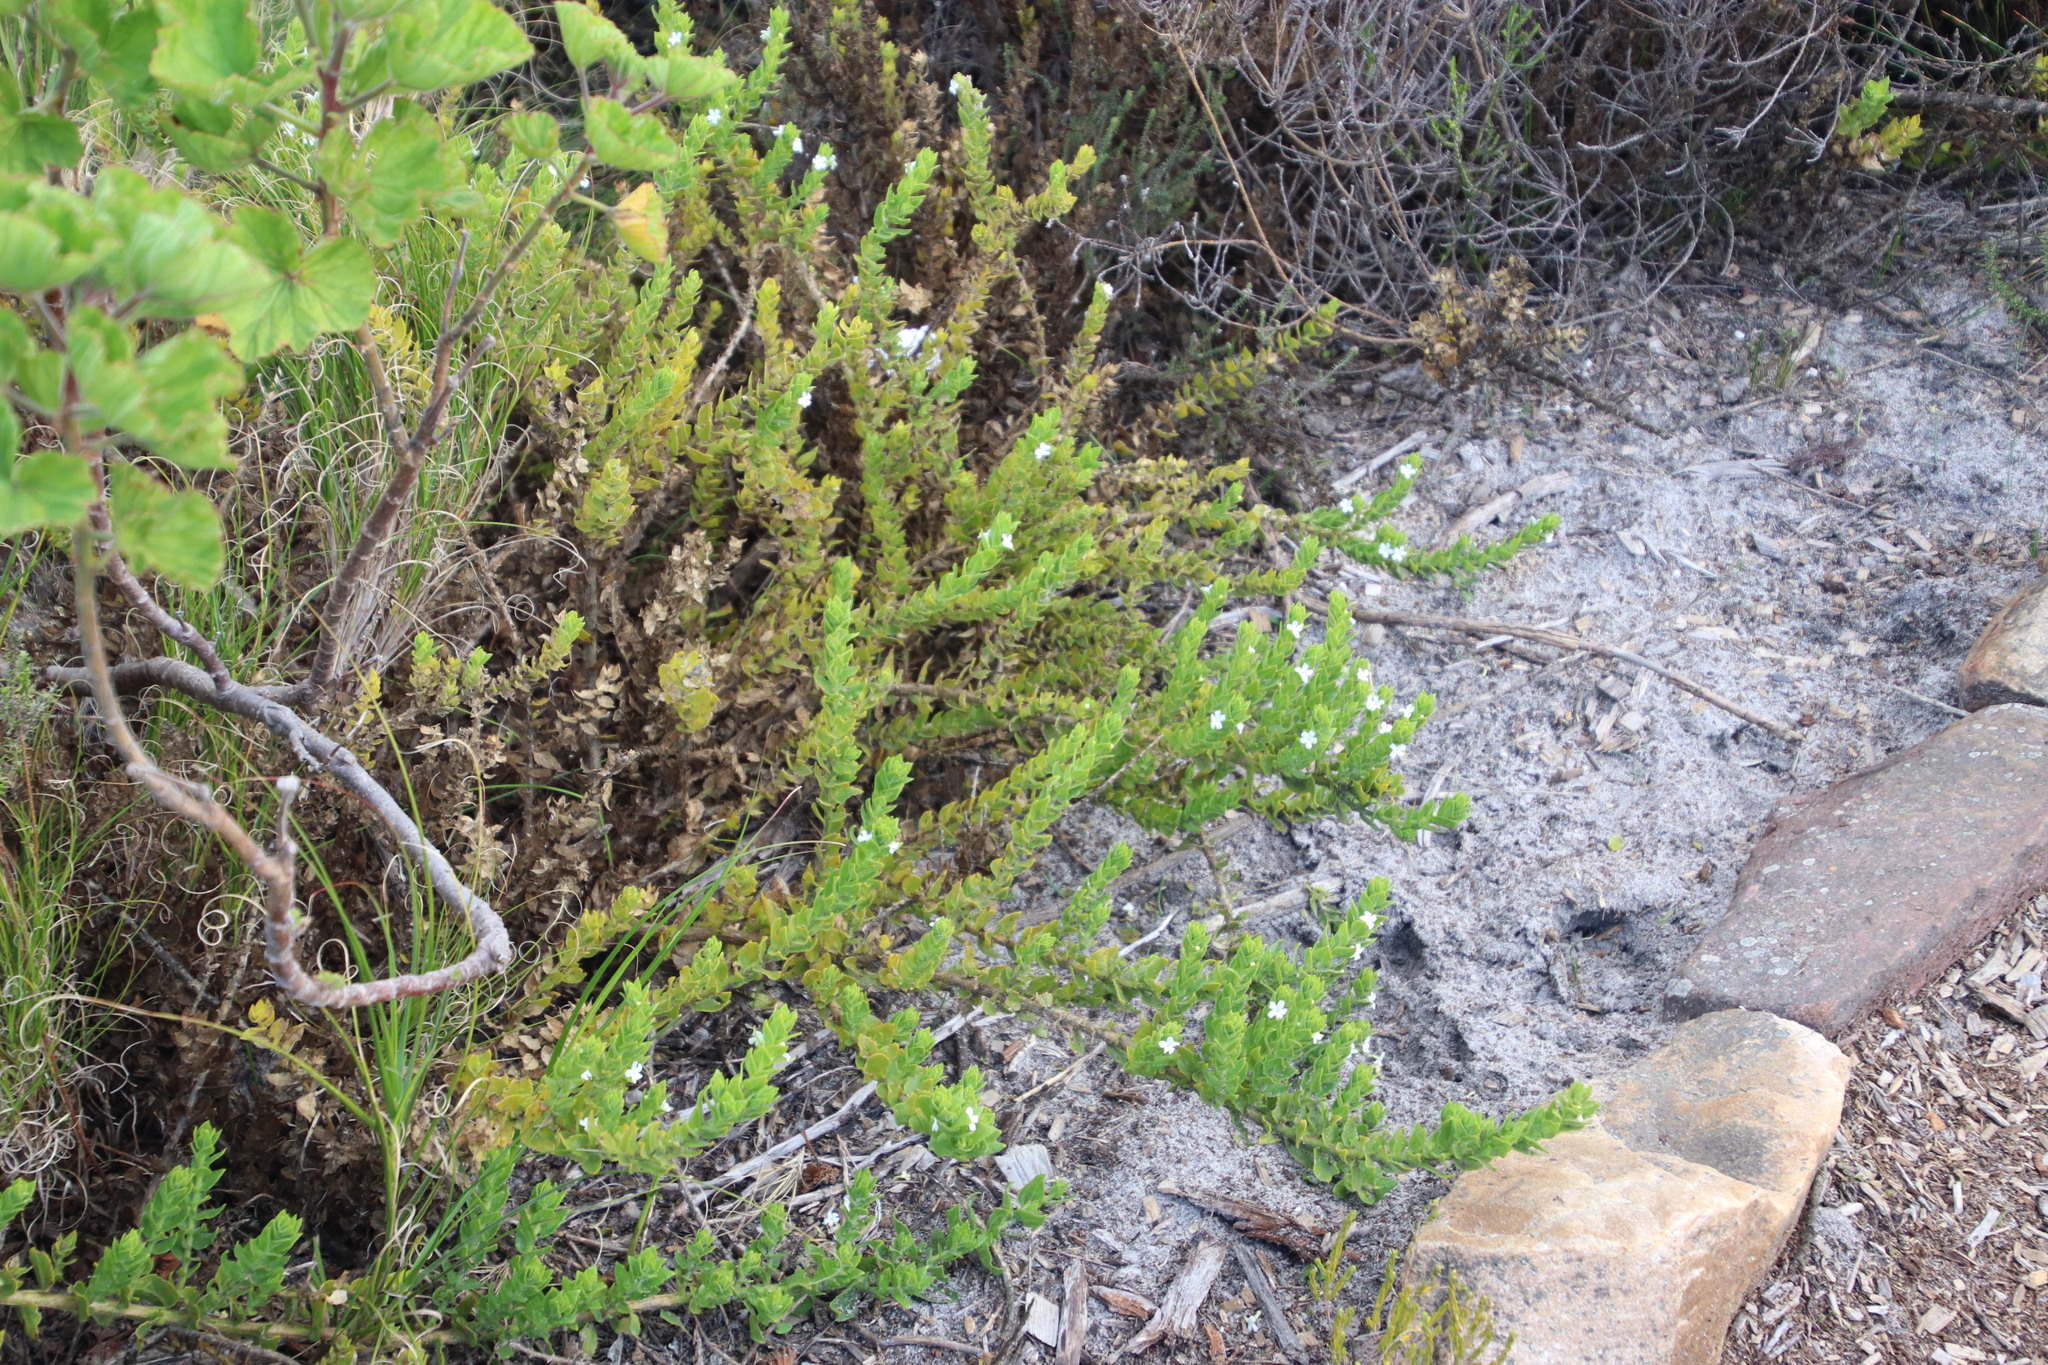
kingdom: Plantae
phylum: Tracheophyta
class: Magnoliopsida
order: Lamiales
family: Scrophulariaceae
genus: Oftia
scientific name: Oftia africana
